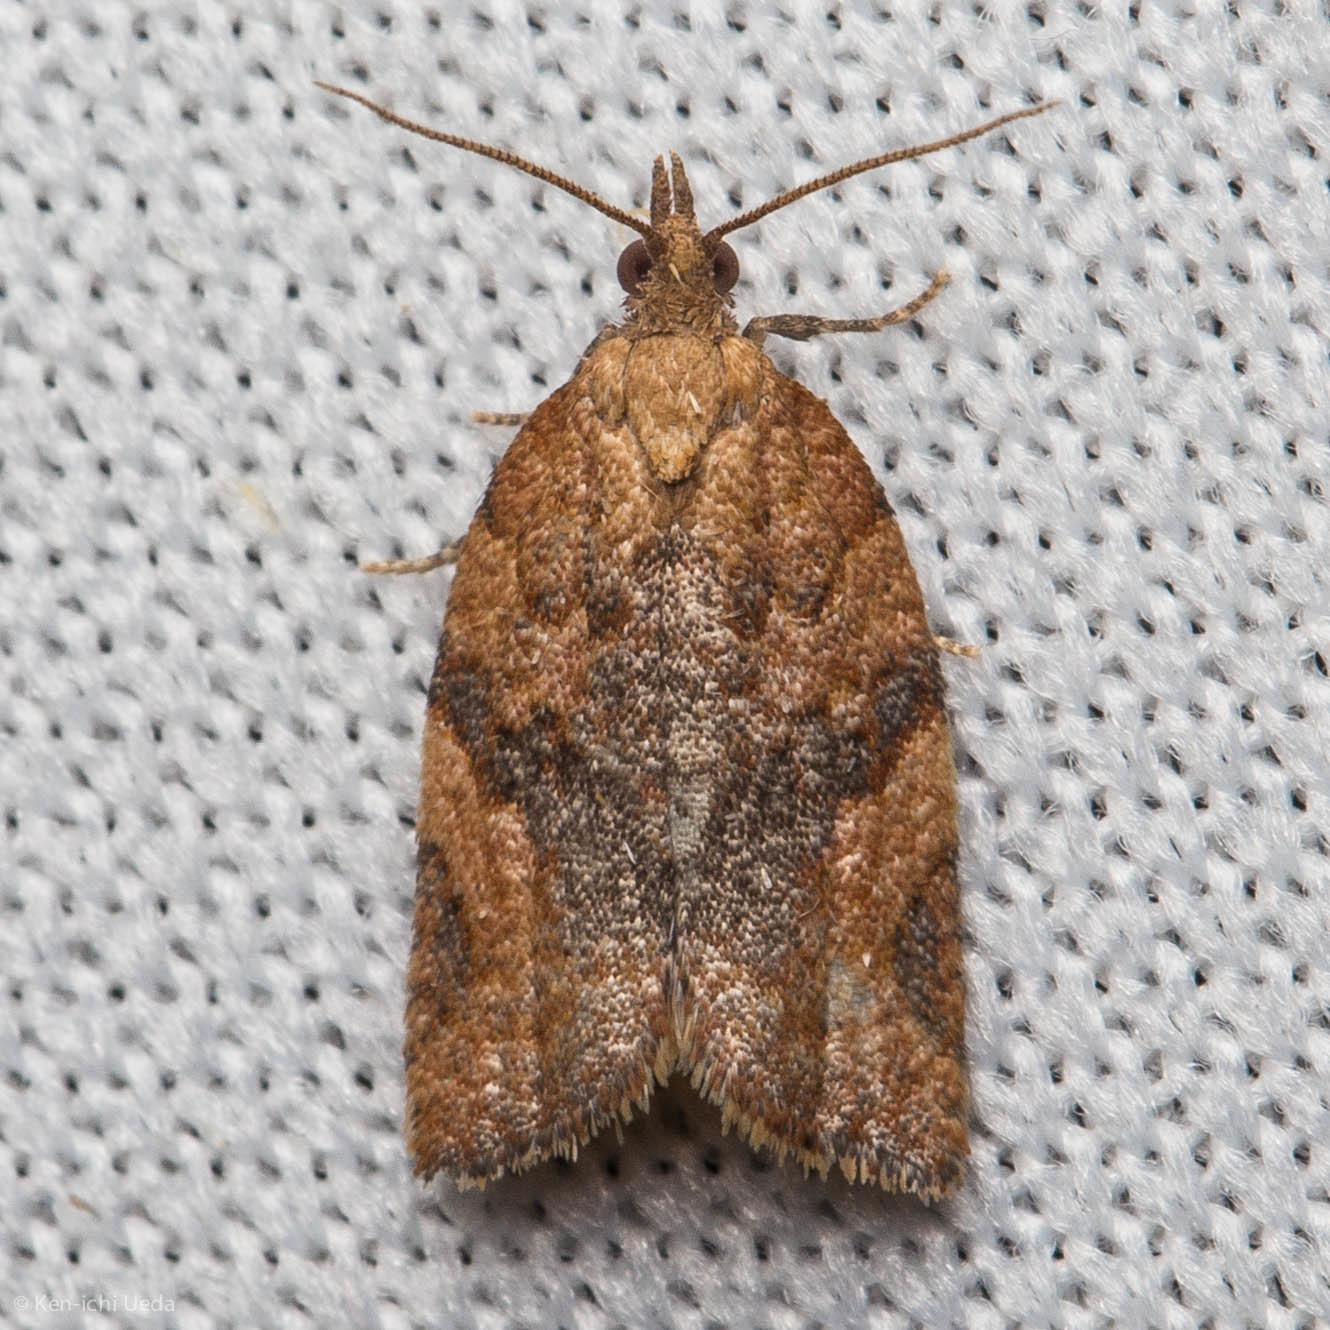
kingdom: Animalia
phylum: Arthropoda
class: Insecta
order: Lepidoptera
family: Tortricidae
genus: Argyrotaenia
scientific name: Argyrotaenia franciscana
